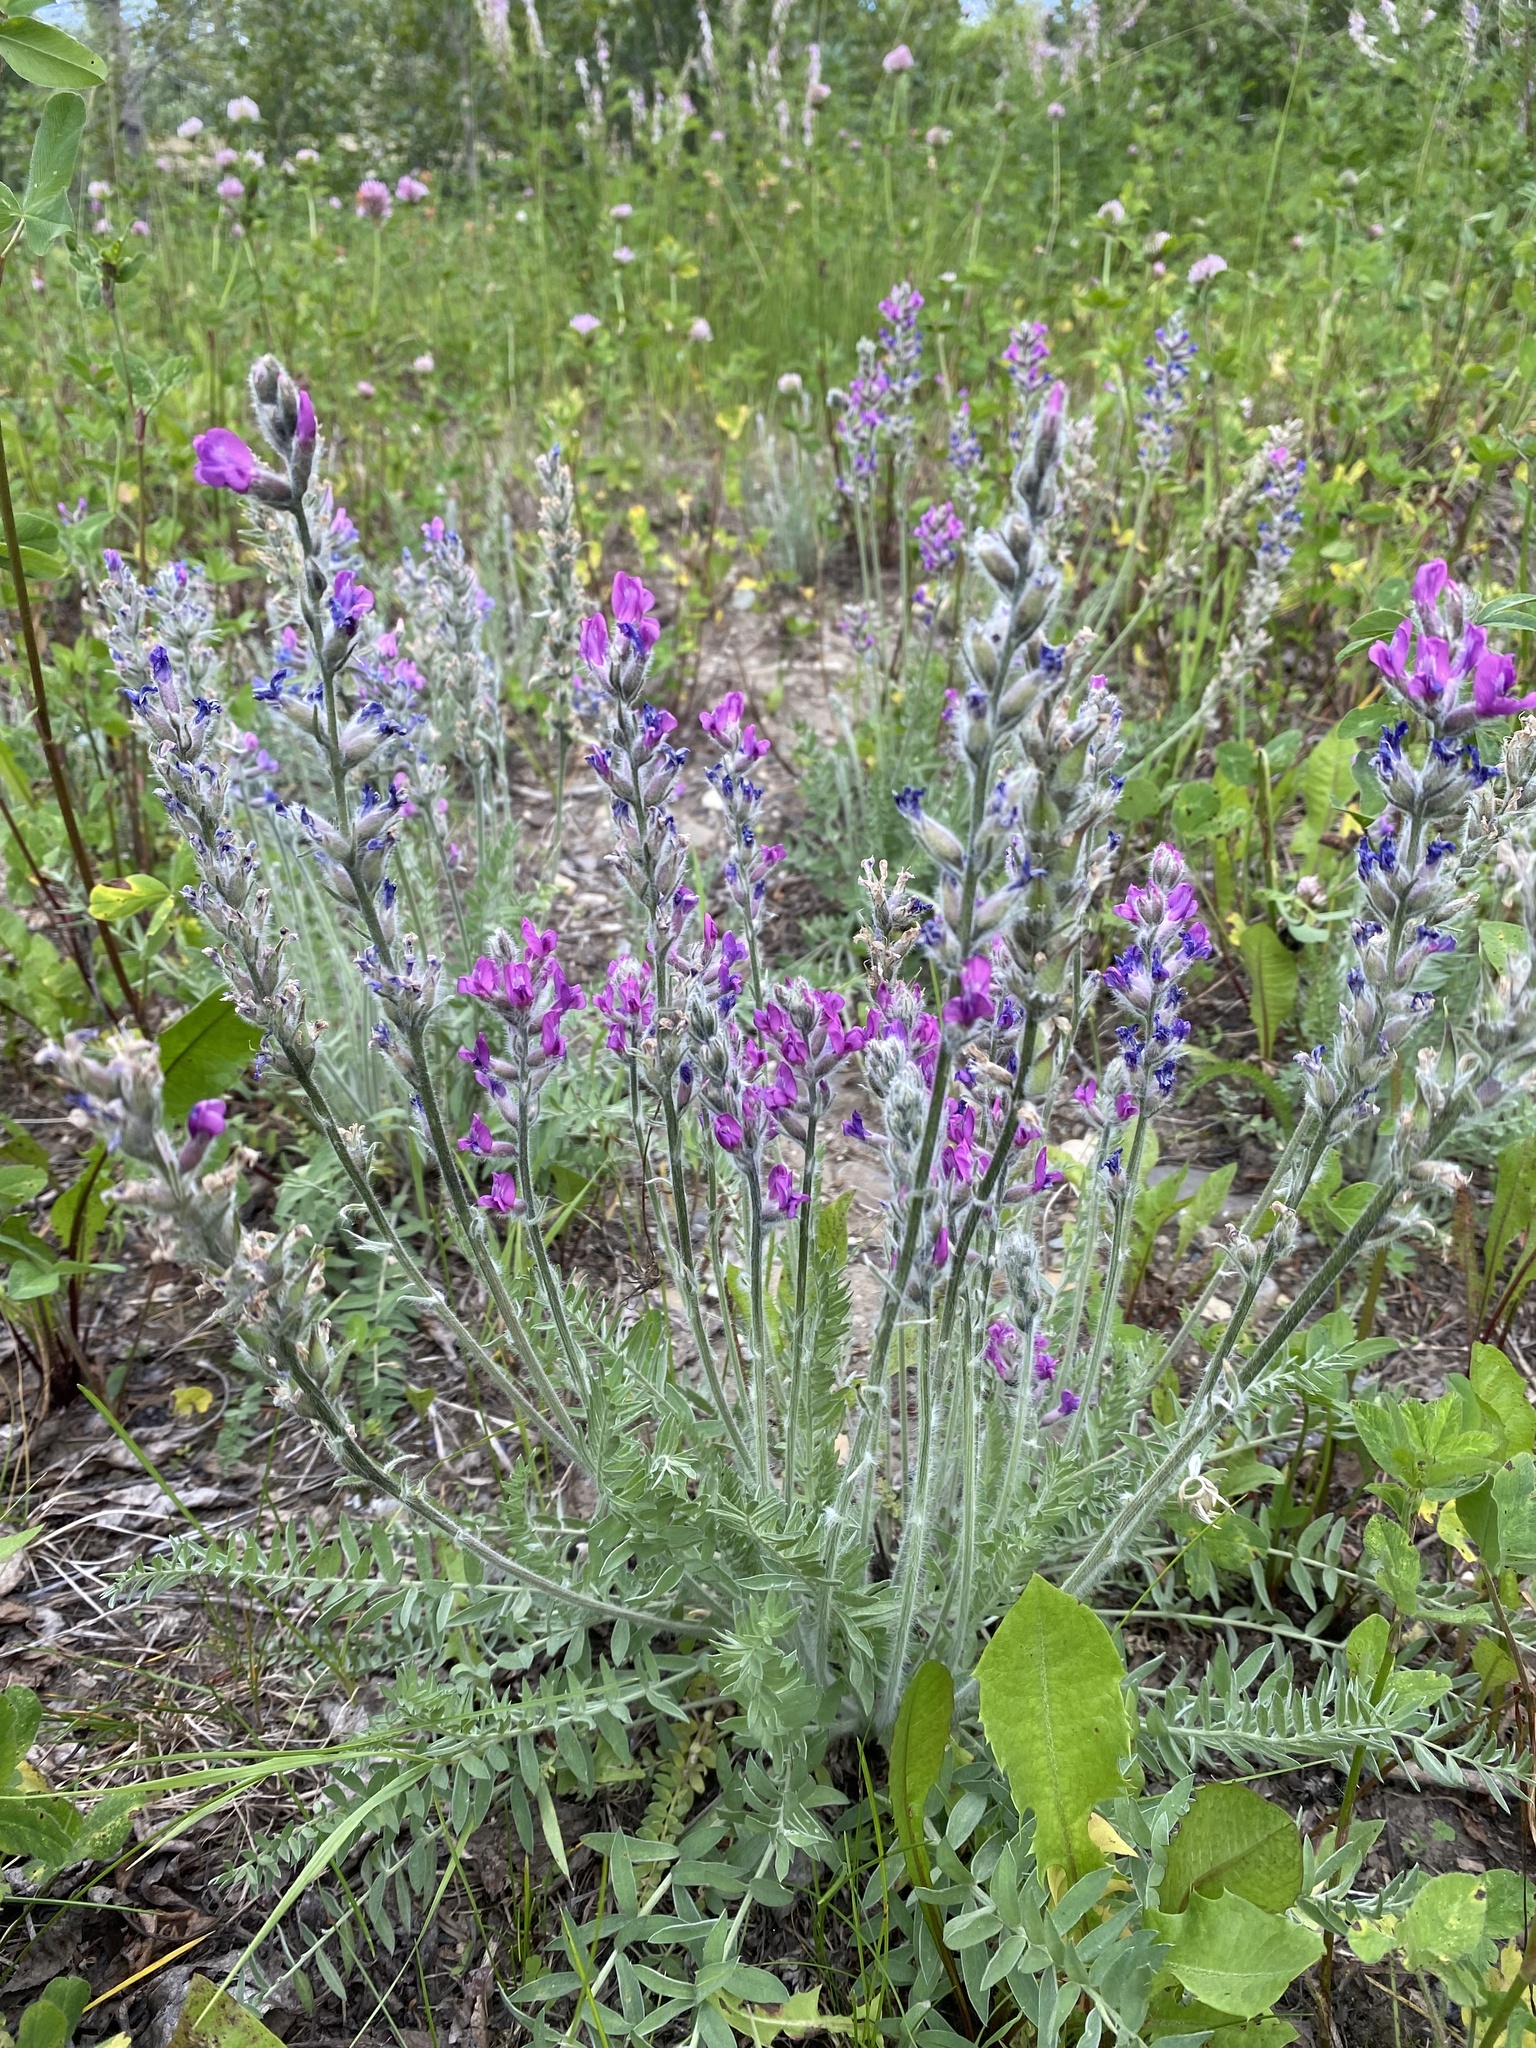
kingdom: Plantae
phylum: Tracheophyta
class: Magnoliopsida
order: Fabales
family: Fabaceae
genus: Oxytropis
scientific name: Oxytropis splendens
